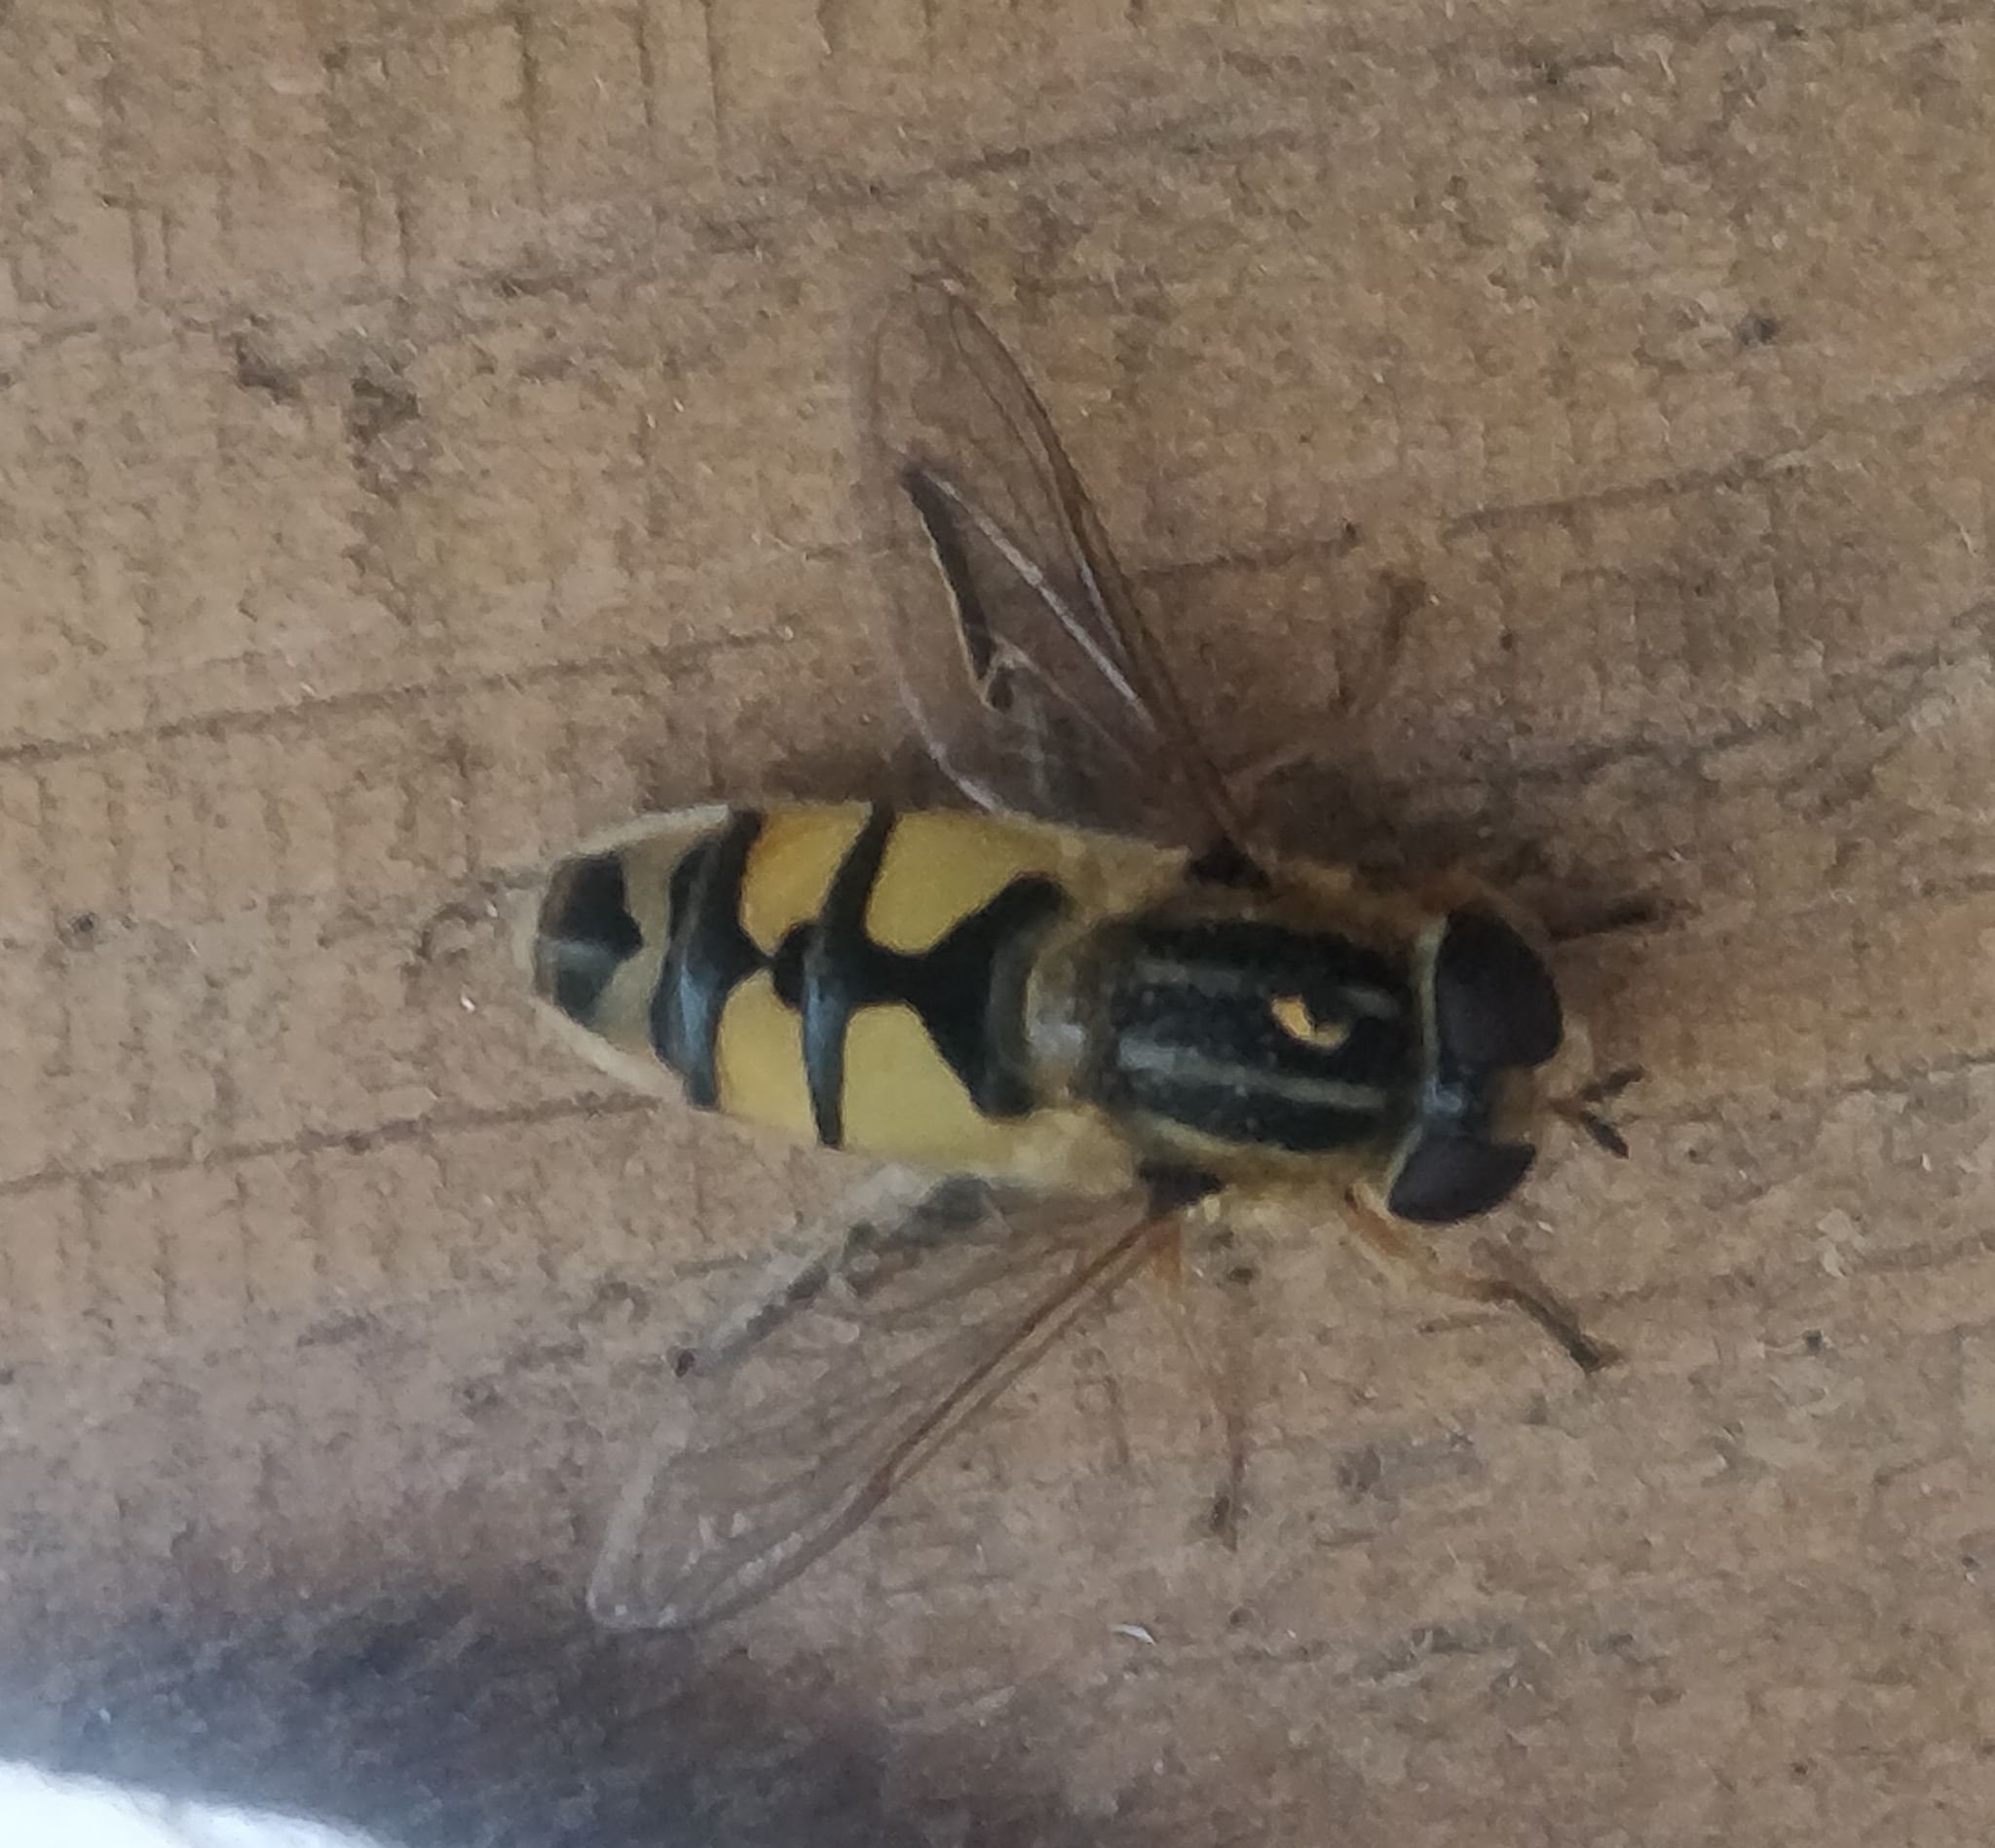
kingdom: Animalia
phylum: Arthropoda
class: Insecta
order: Diptera
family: Syrphidae
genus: Helophilus
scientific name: Helophilus latifrons
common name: Broad-headed marsh fly
